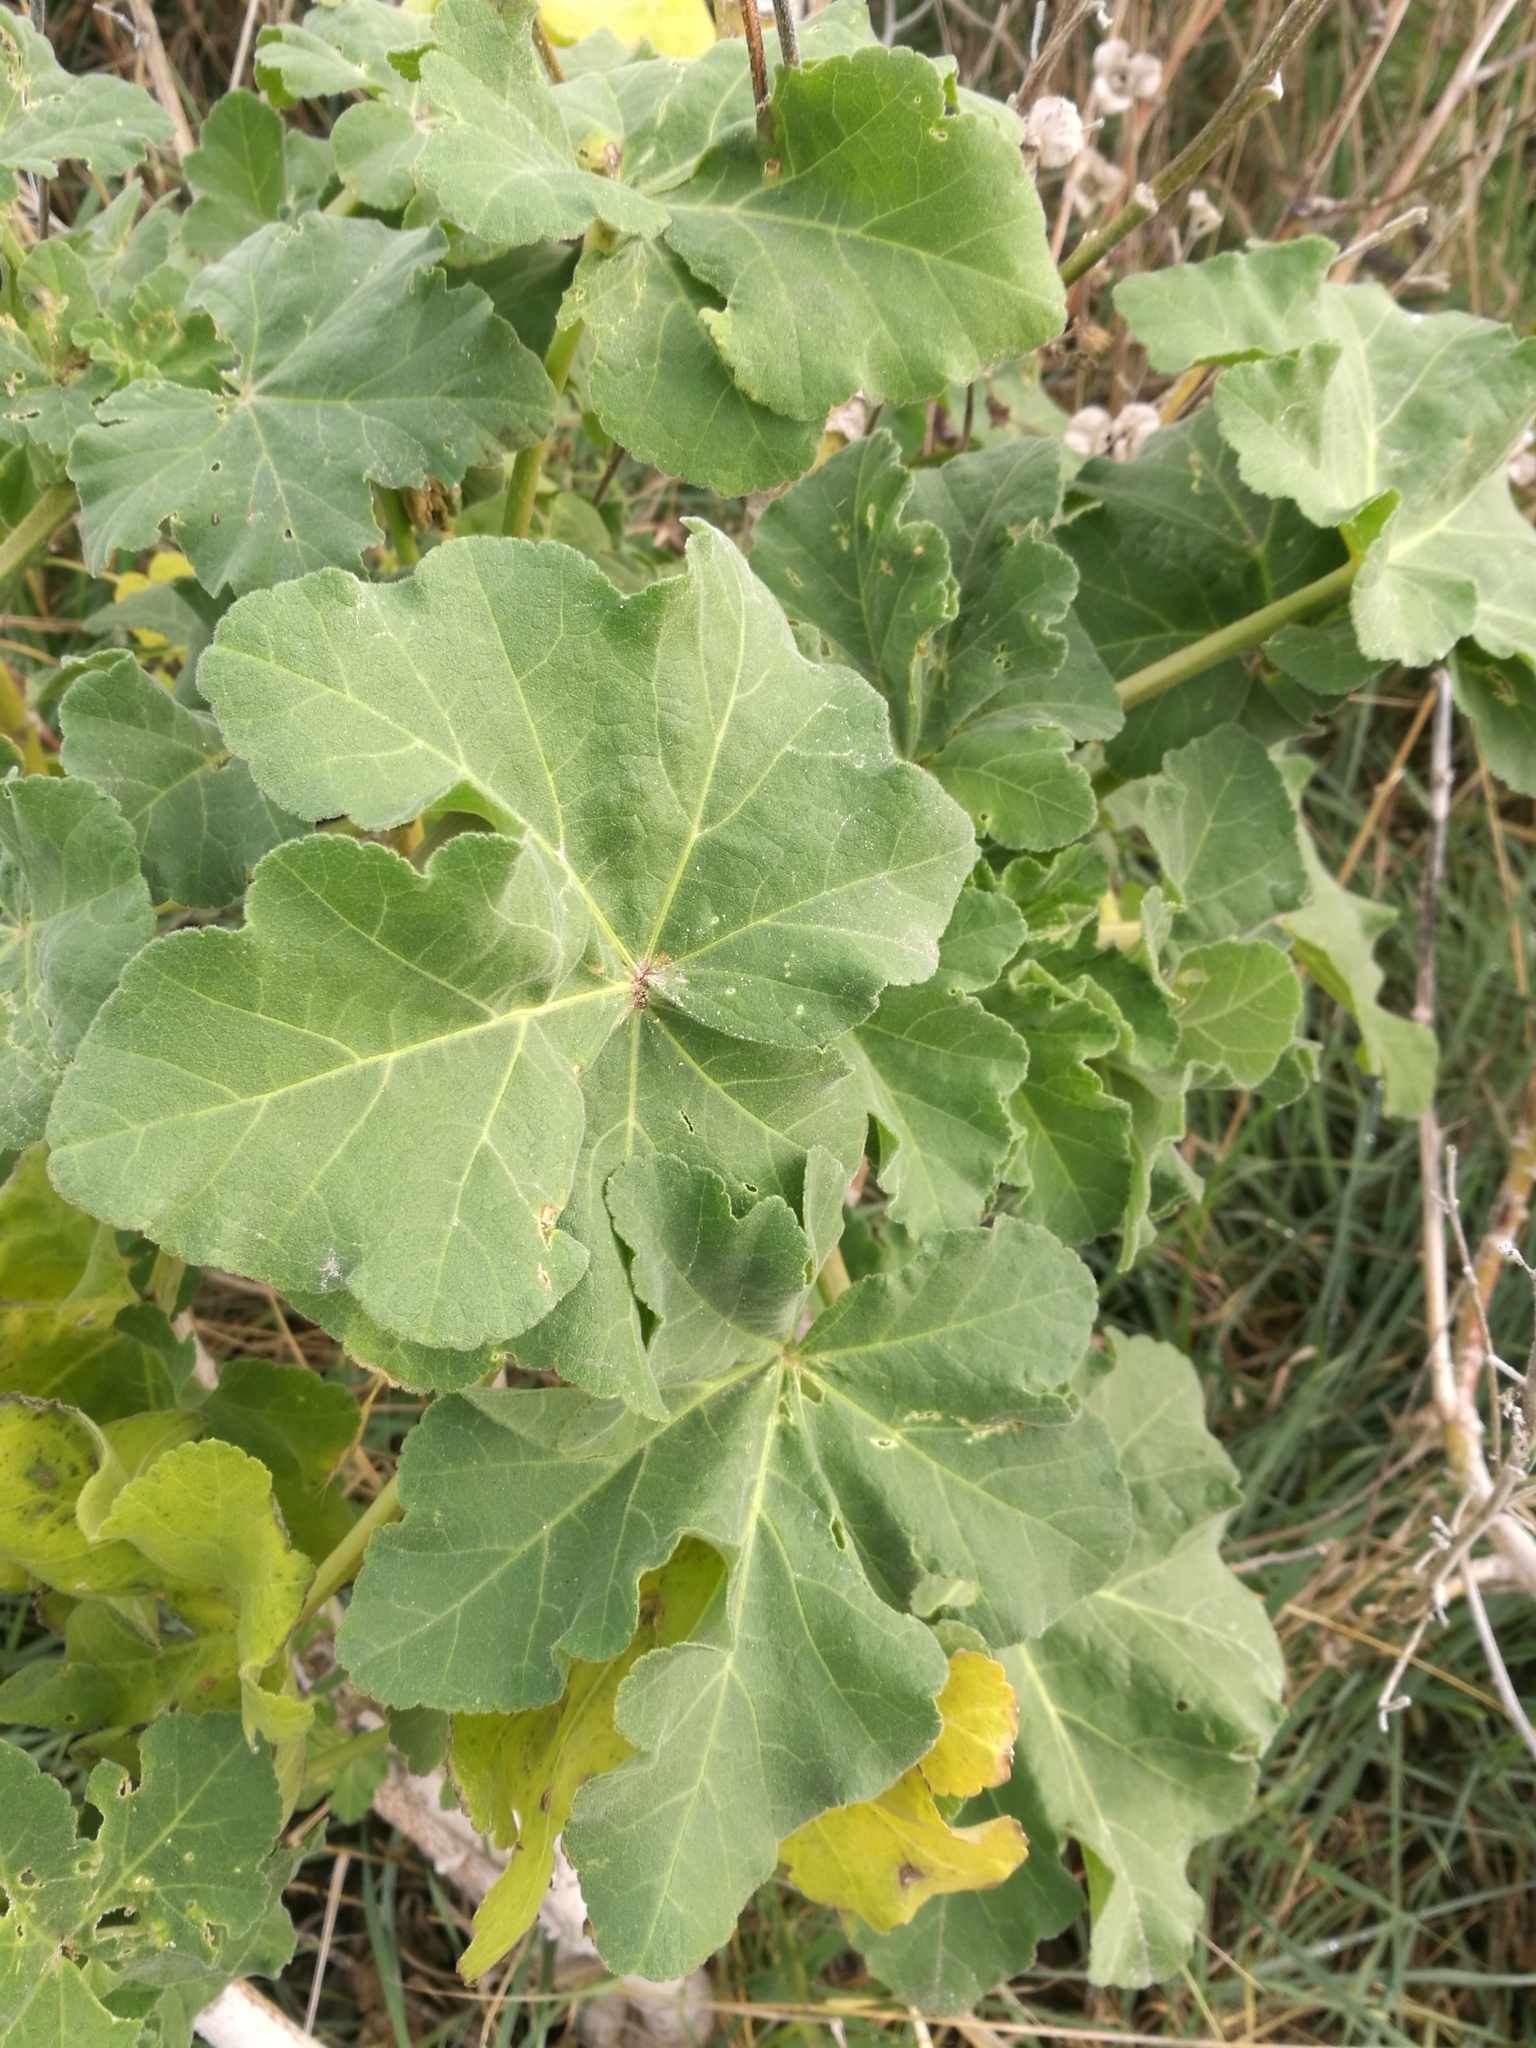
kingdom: Plantae
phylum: Tracheophyta
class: Magnoliopsida
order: Malvales
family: Malvaceae
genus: Malva
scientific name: Malva arborea
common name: Tree mallow
